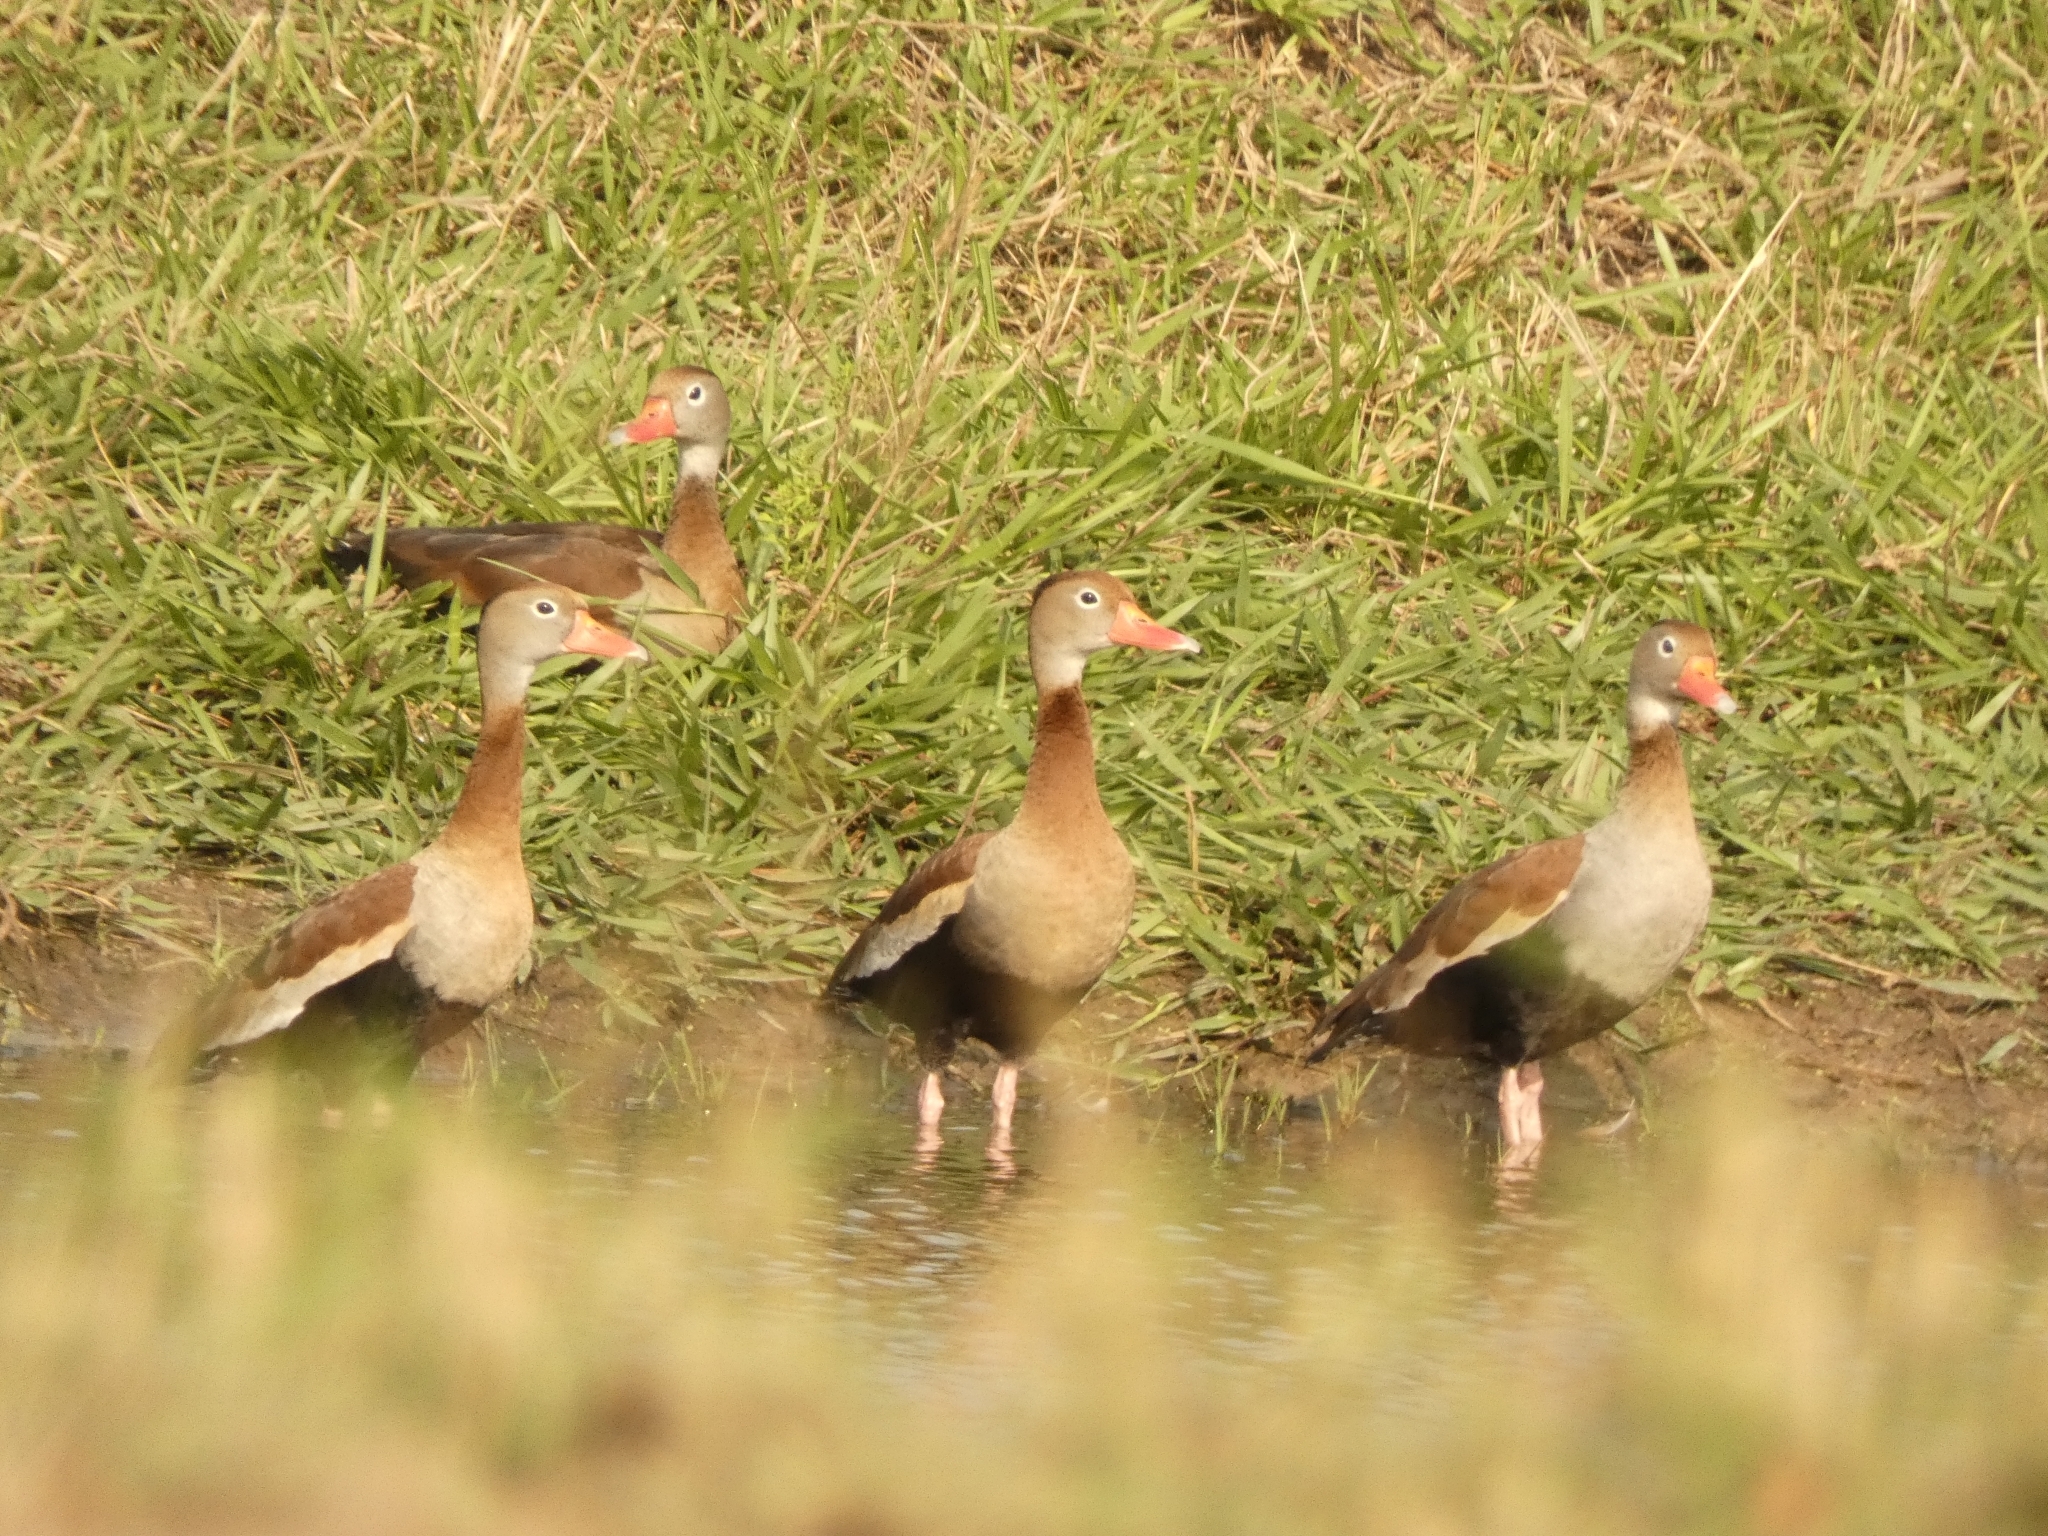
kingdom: Animalia
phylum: Chordata
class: Aves
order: Anseriformes
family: Anatidae
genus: Dendrocygna
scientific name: Dendrocygna autumnalis
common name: Black-bellied whistling duck
